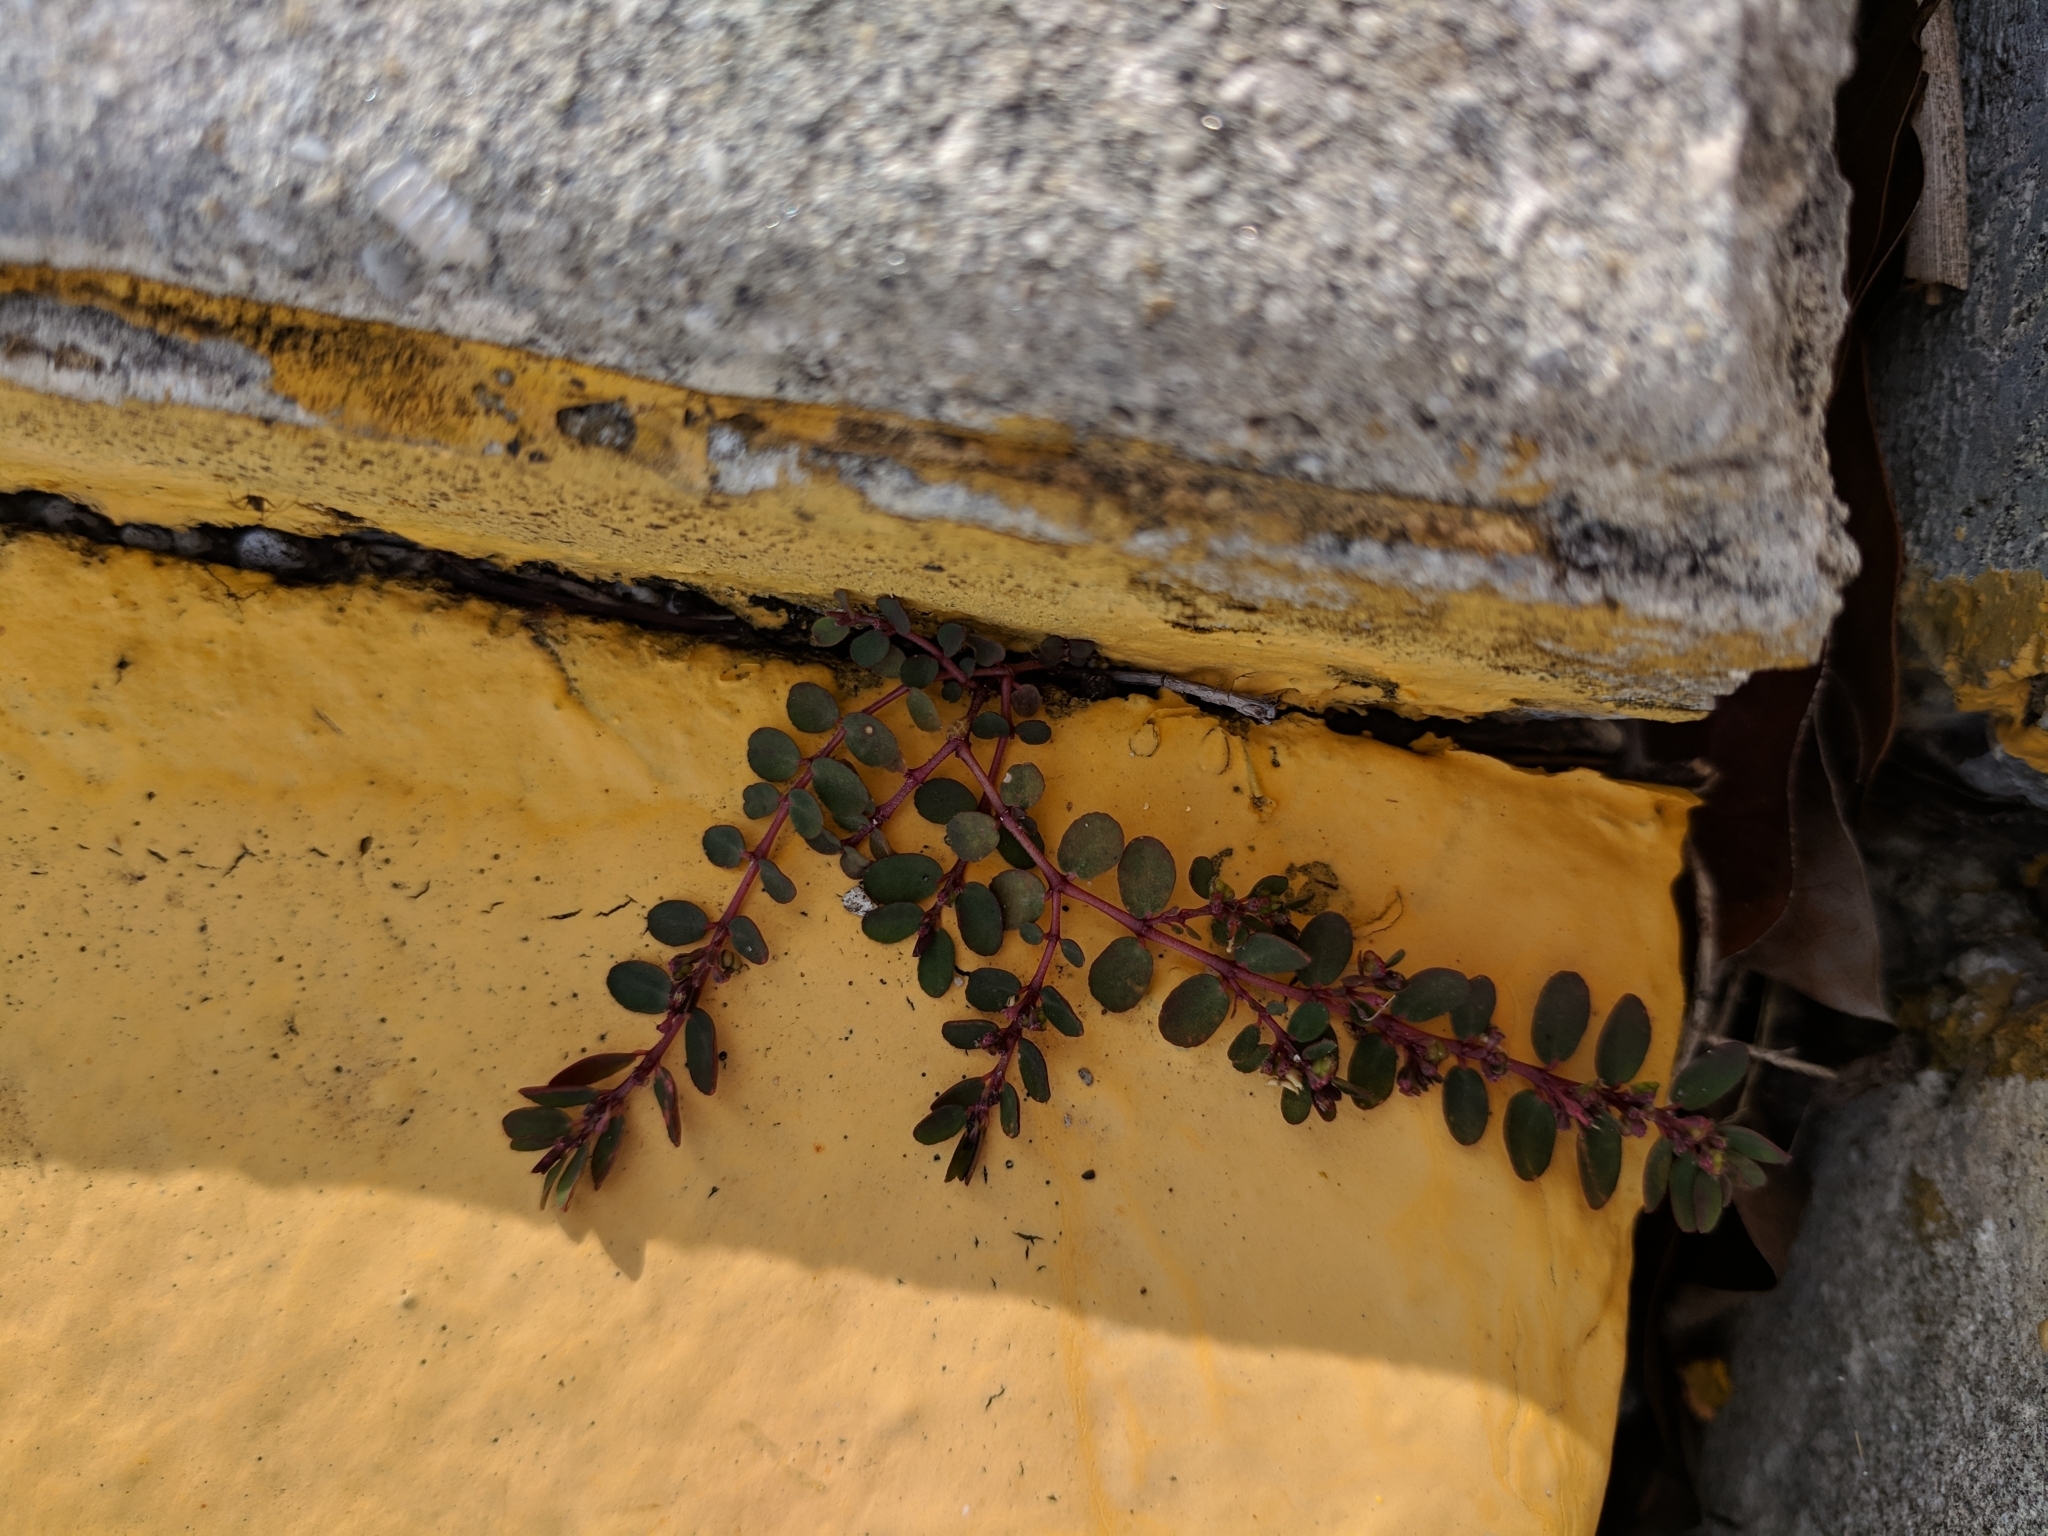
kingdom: Plantae
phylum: Tracheophyta
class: Magnoliopsida
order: Malpighiales
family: Euphorbiaceae
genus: Euphorbia
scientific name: Euphorbia prostrata
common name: Prostrate sandmat
